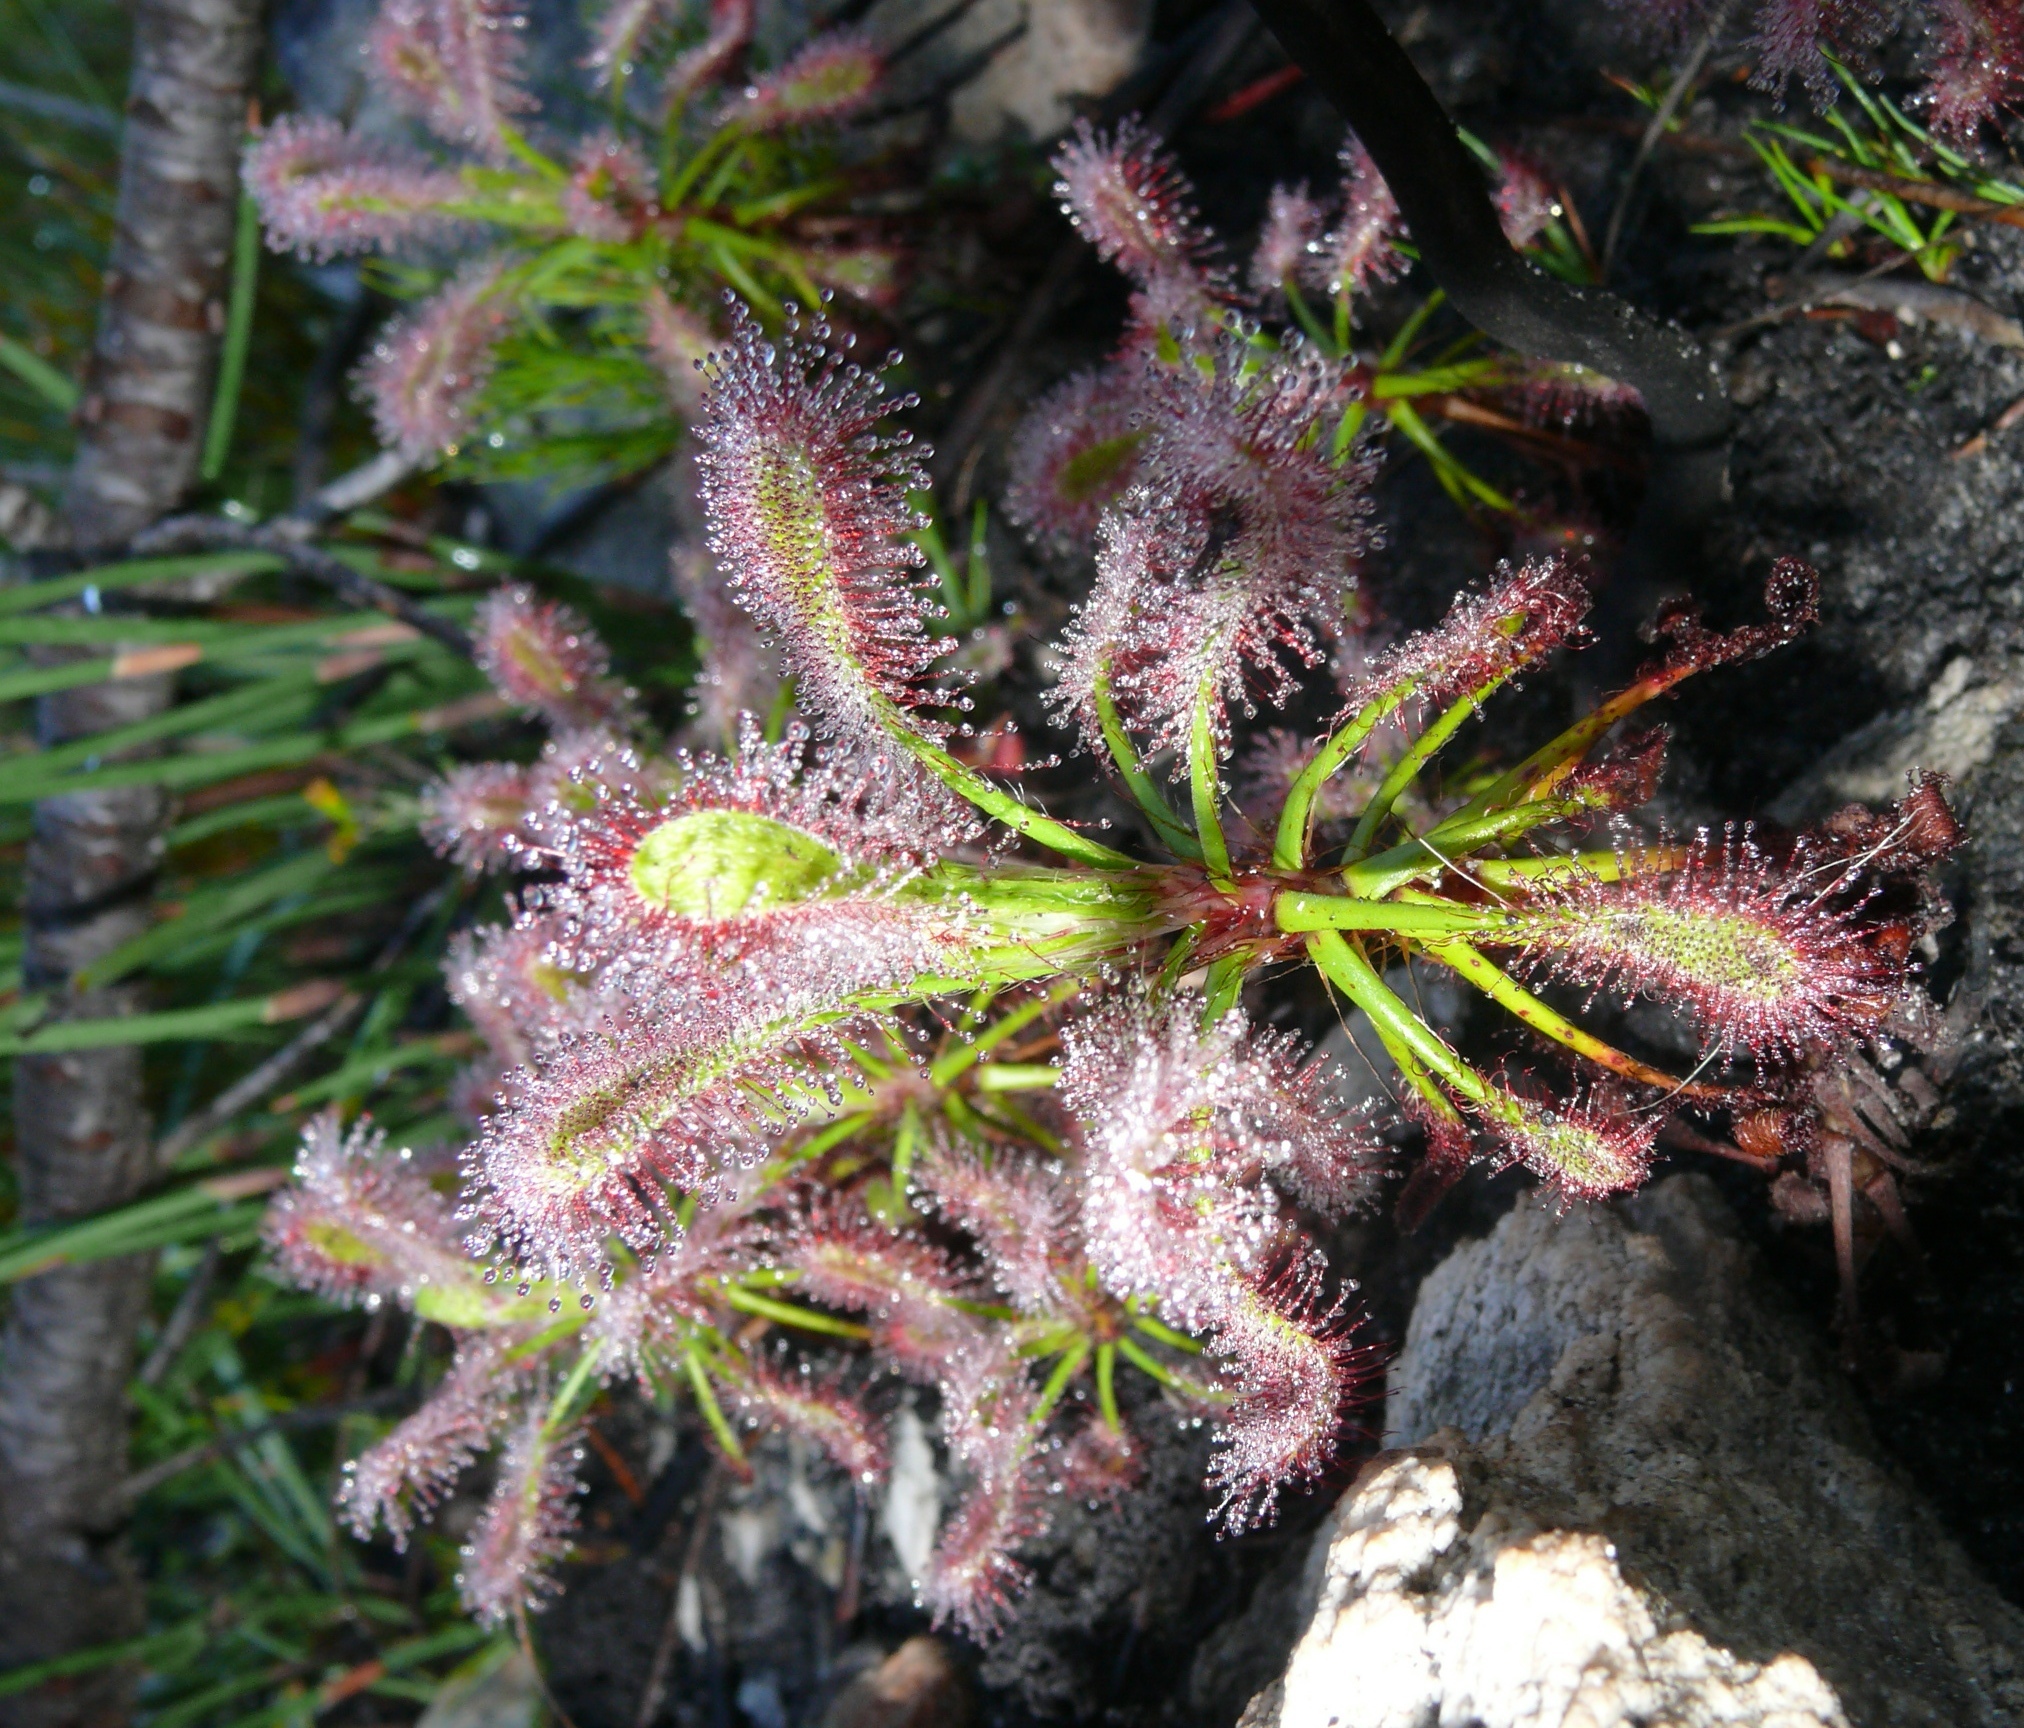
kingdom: Plantae
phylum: Tracheophyta
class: Magnoliopsida
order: Caryophyllales
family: Droseraceae
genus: Drosera
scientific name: Drosera glabripes
